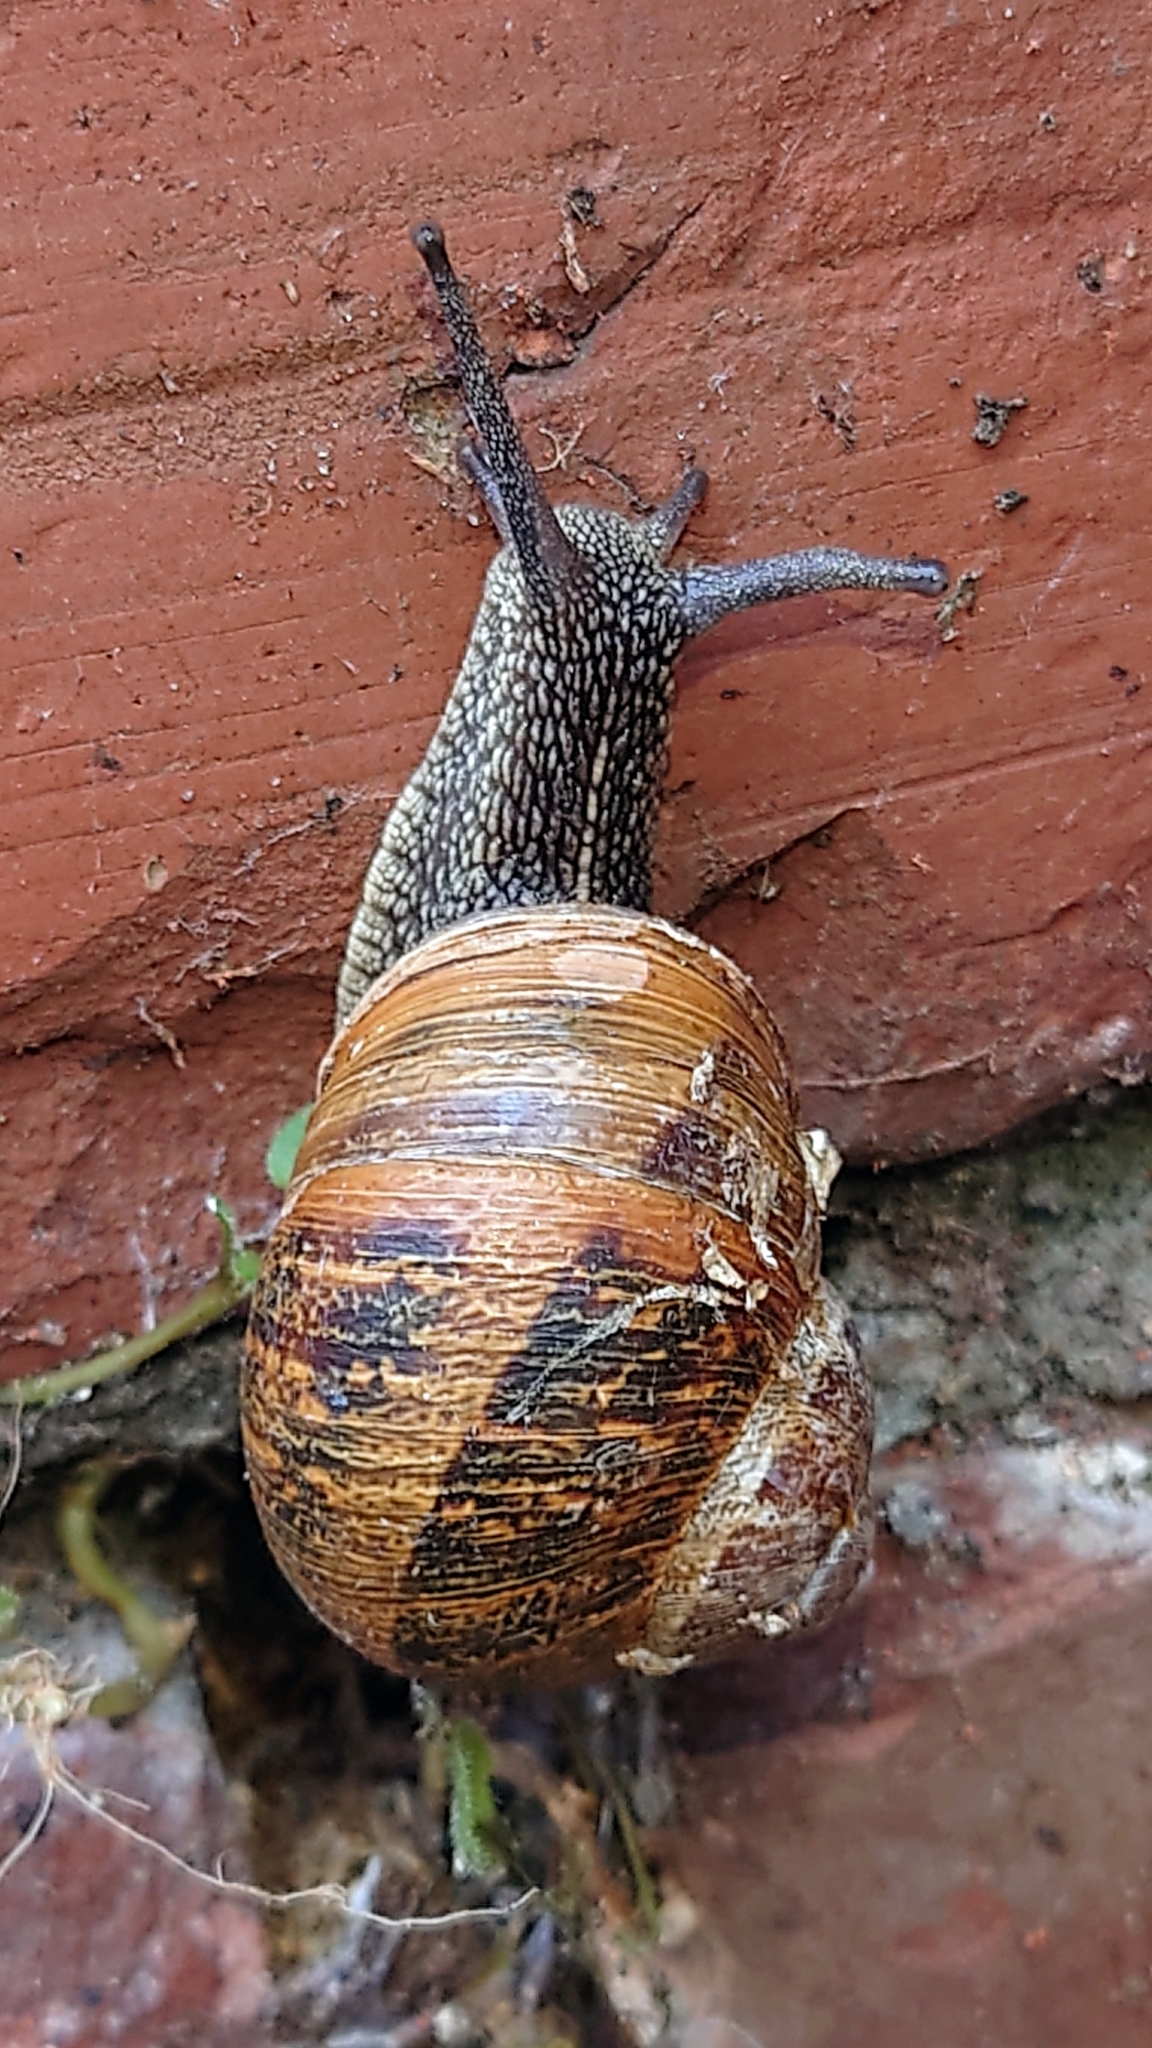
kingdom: Animalia
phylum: Mollusca
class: Gastropoda
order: Stylommatophora
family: Helicidae
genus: Cornu
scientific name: Cornu aspersum
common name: Brown garden snail
